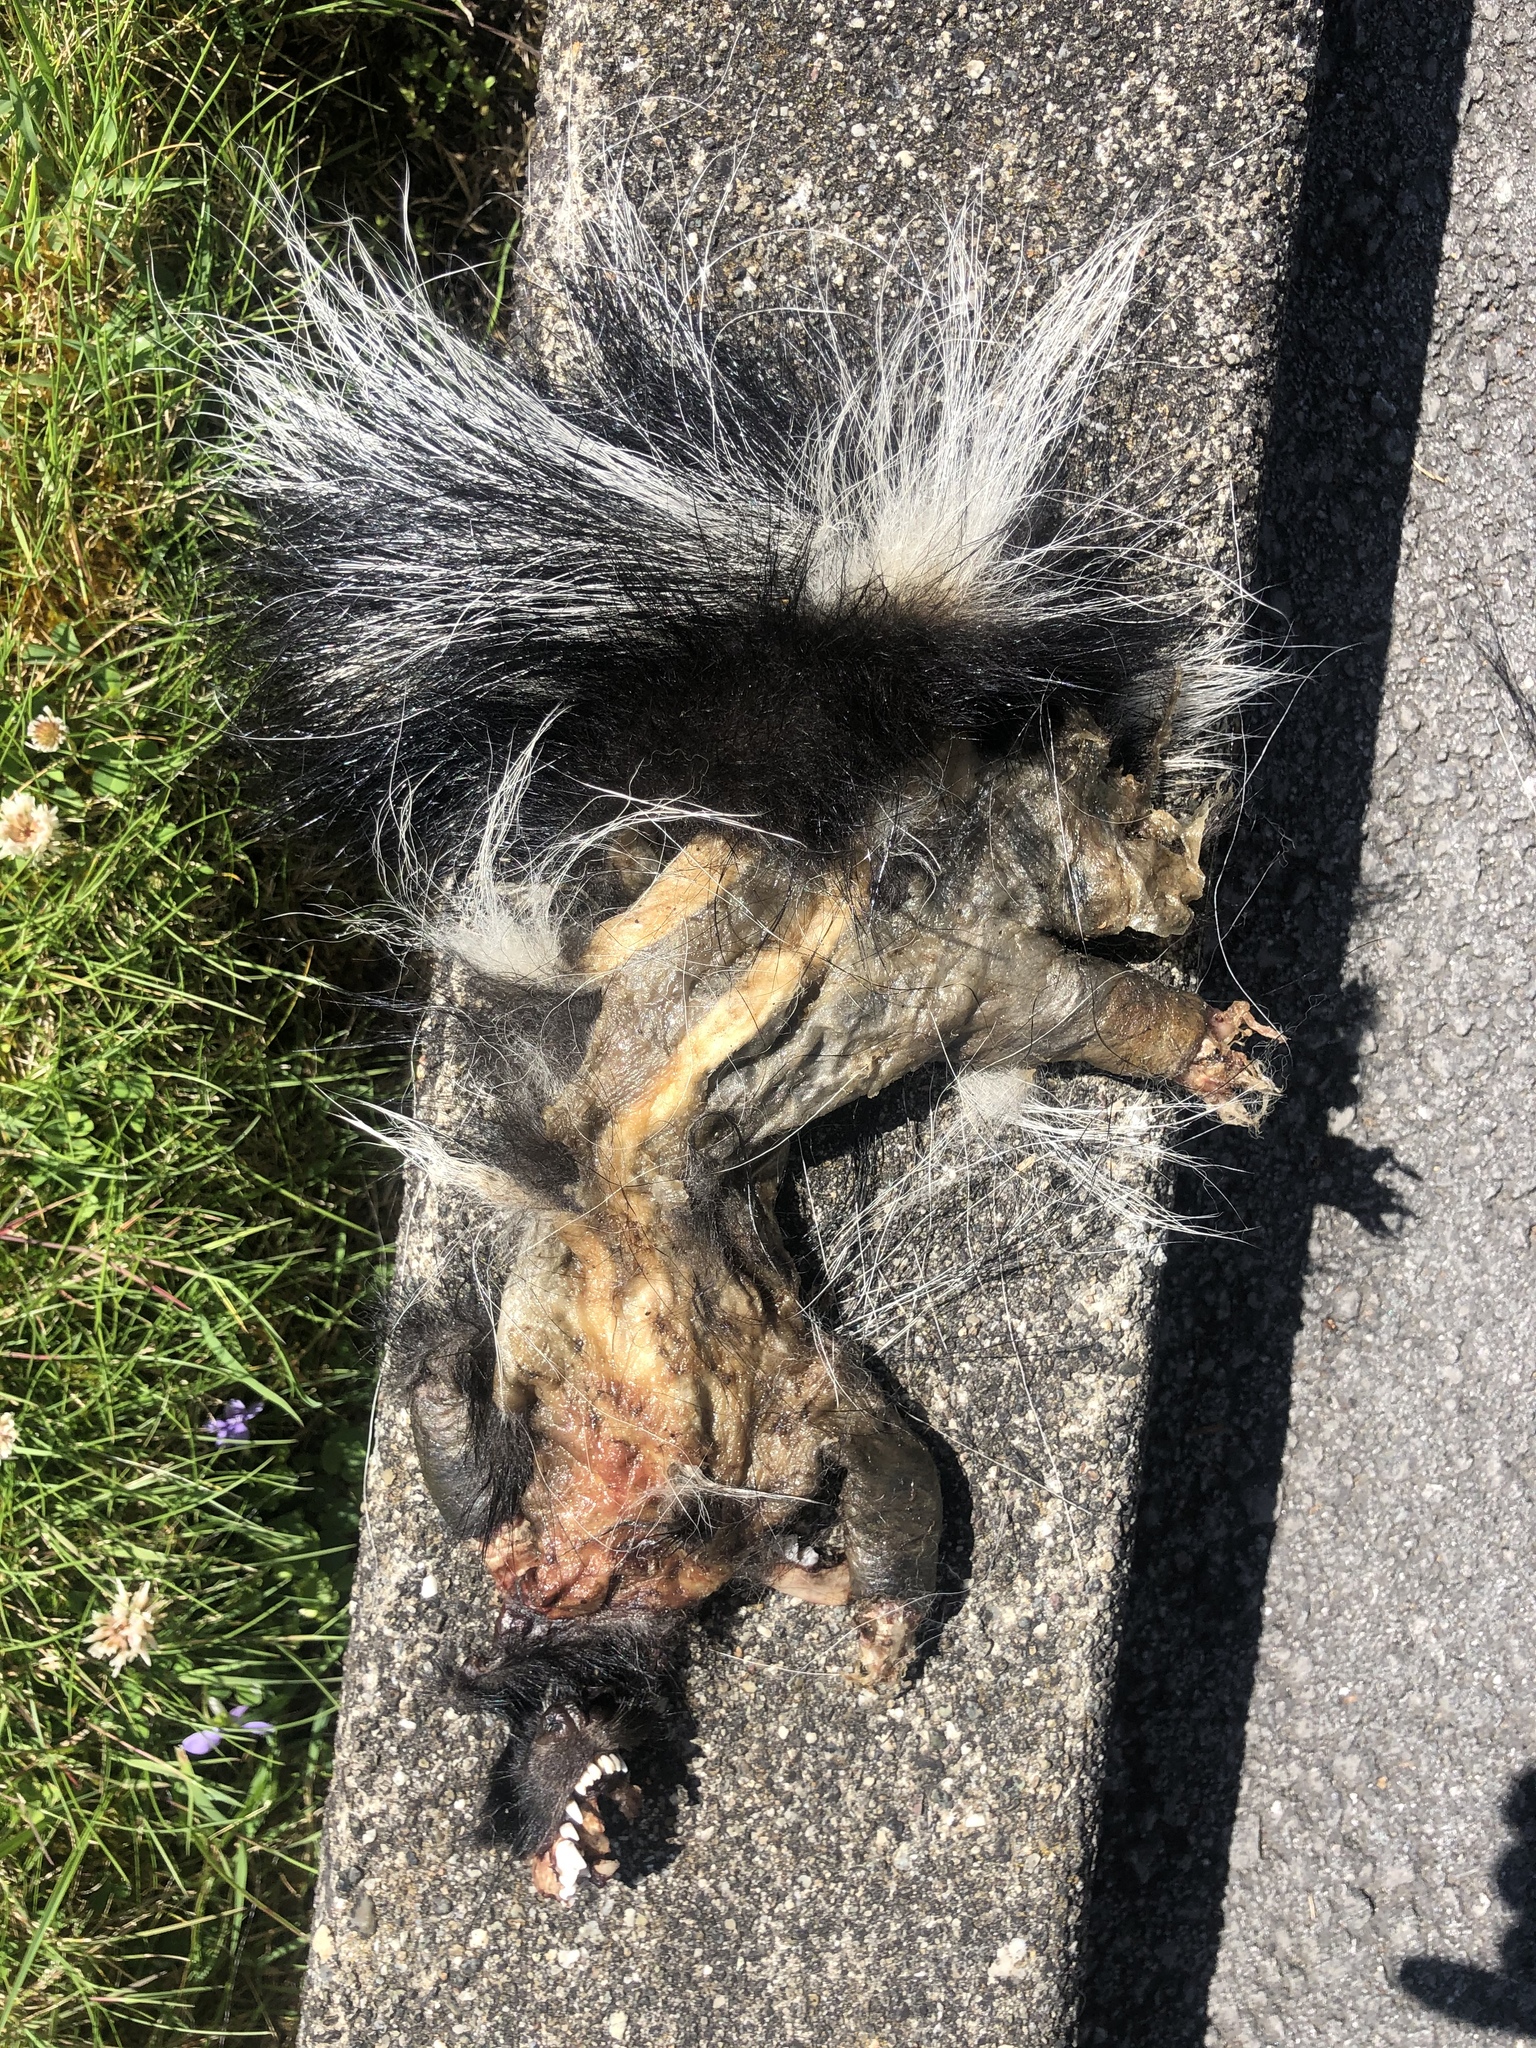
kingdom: Animalia
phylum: Chordata
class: Mammalia
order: Carnivora
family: Mephitidae
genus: Mephitis
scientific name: Mephitis mephitis
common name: Striped skunk
